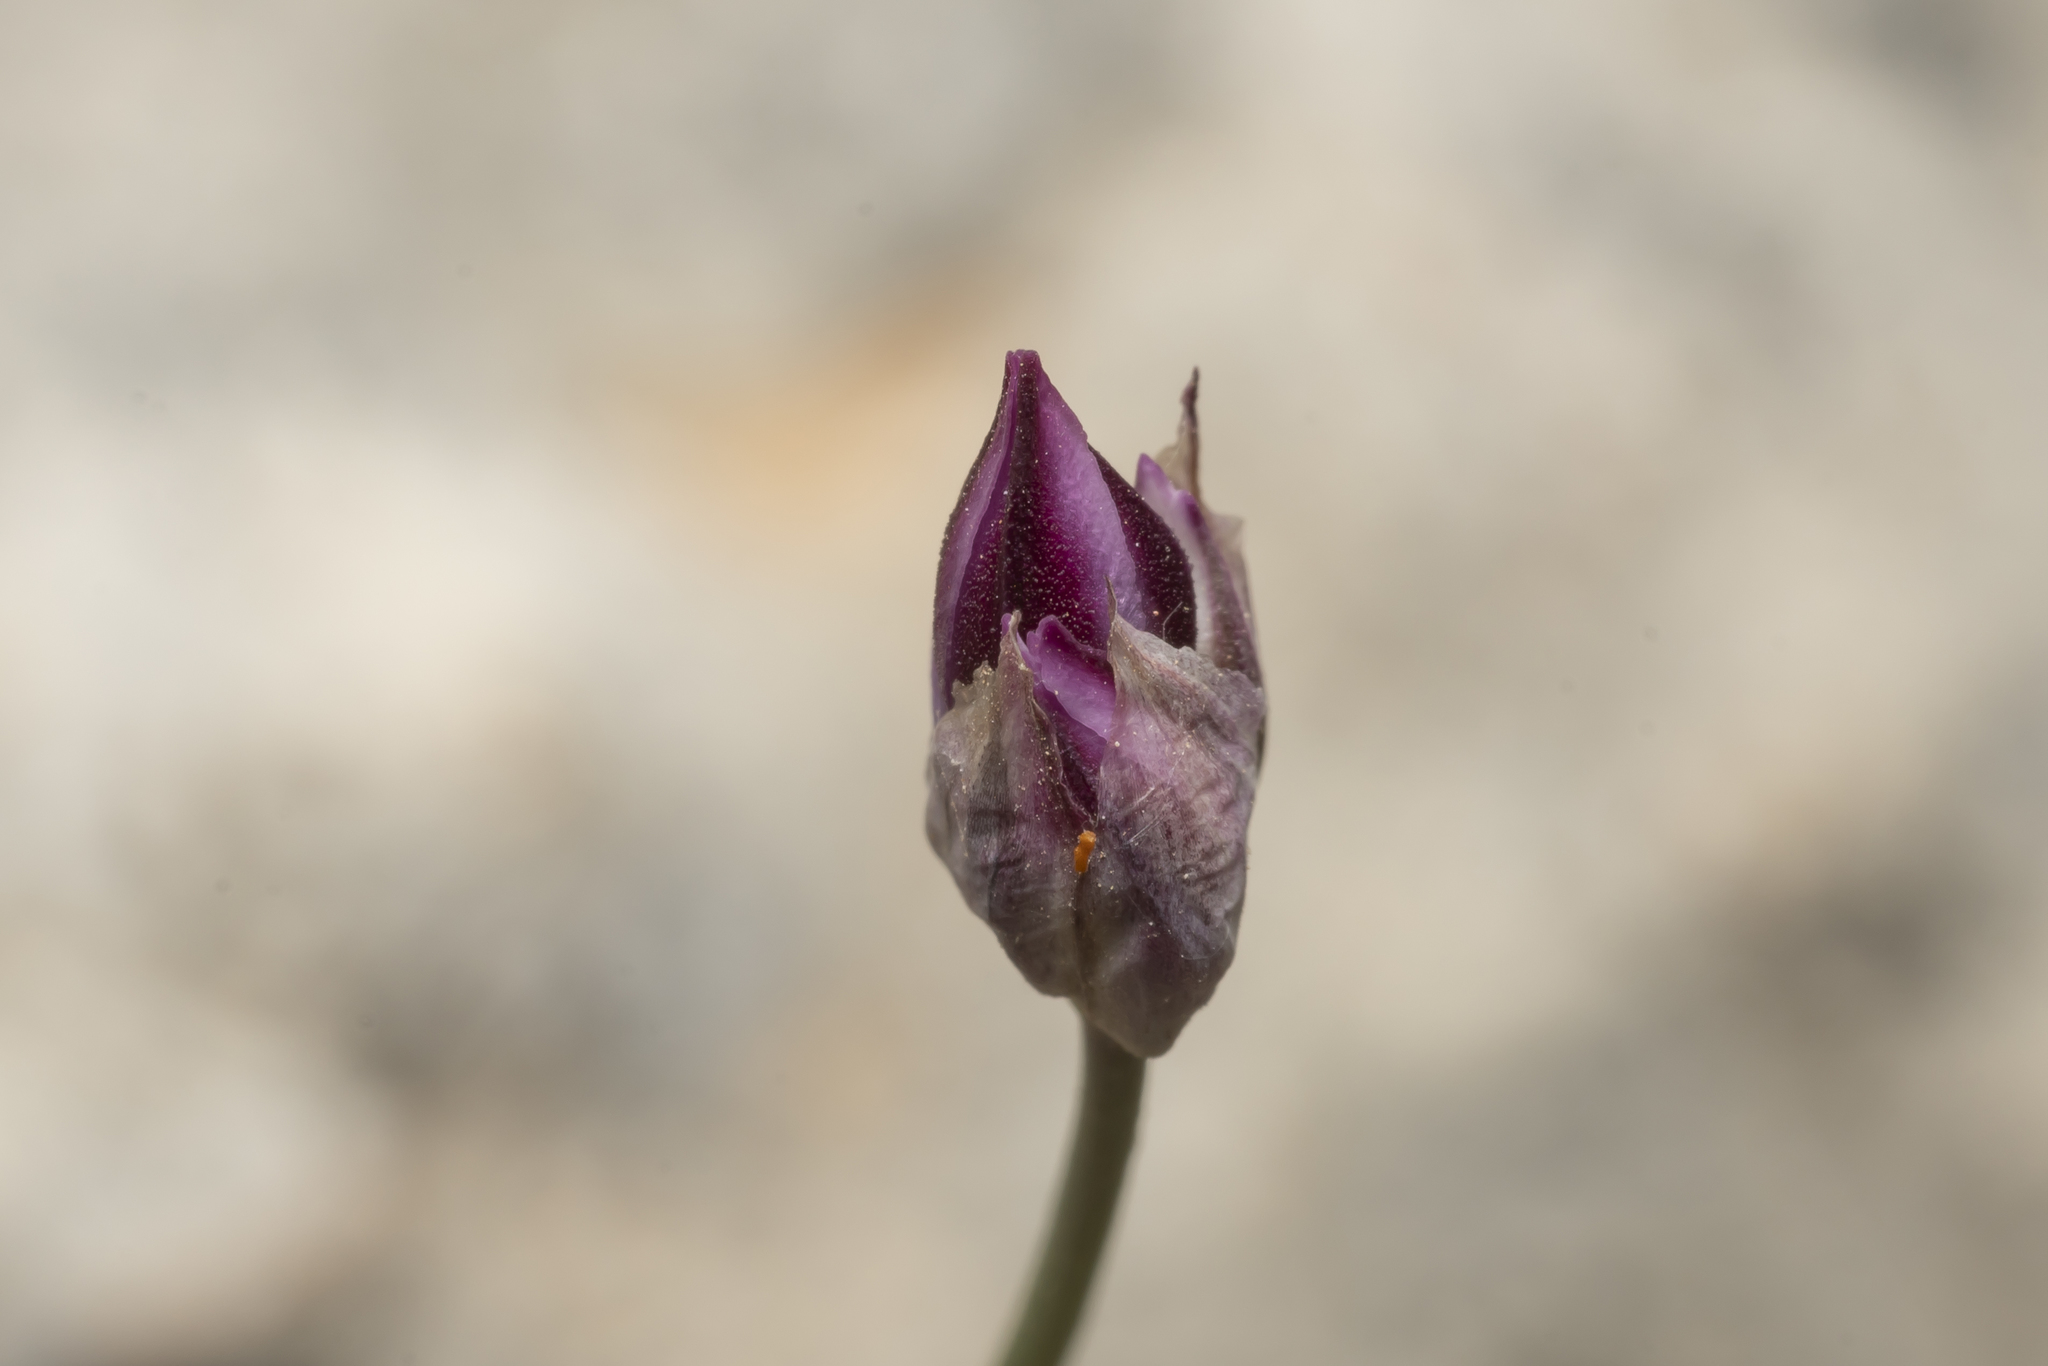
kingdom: Plantae
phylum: Tracheophyta
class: Liliopsida
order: Asparagales
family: Amaryllidaceae
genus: Allium
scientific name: Allium junceum
